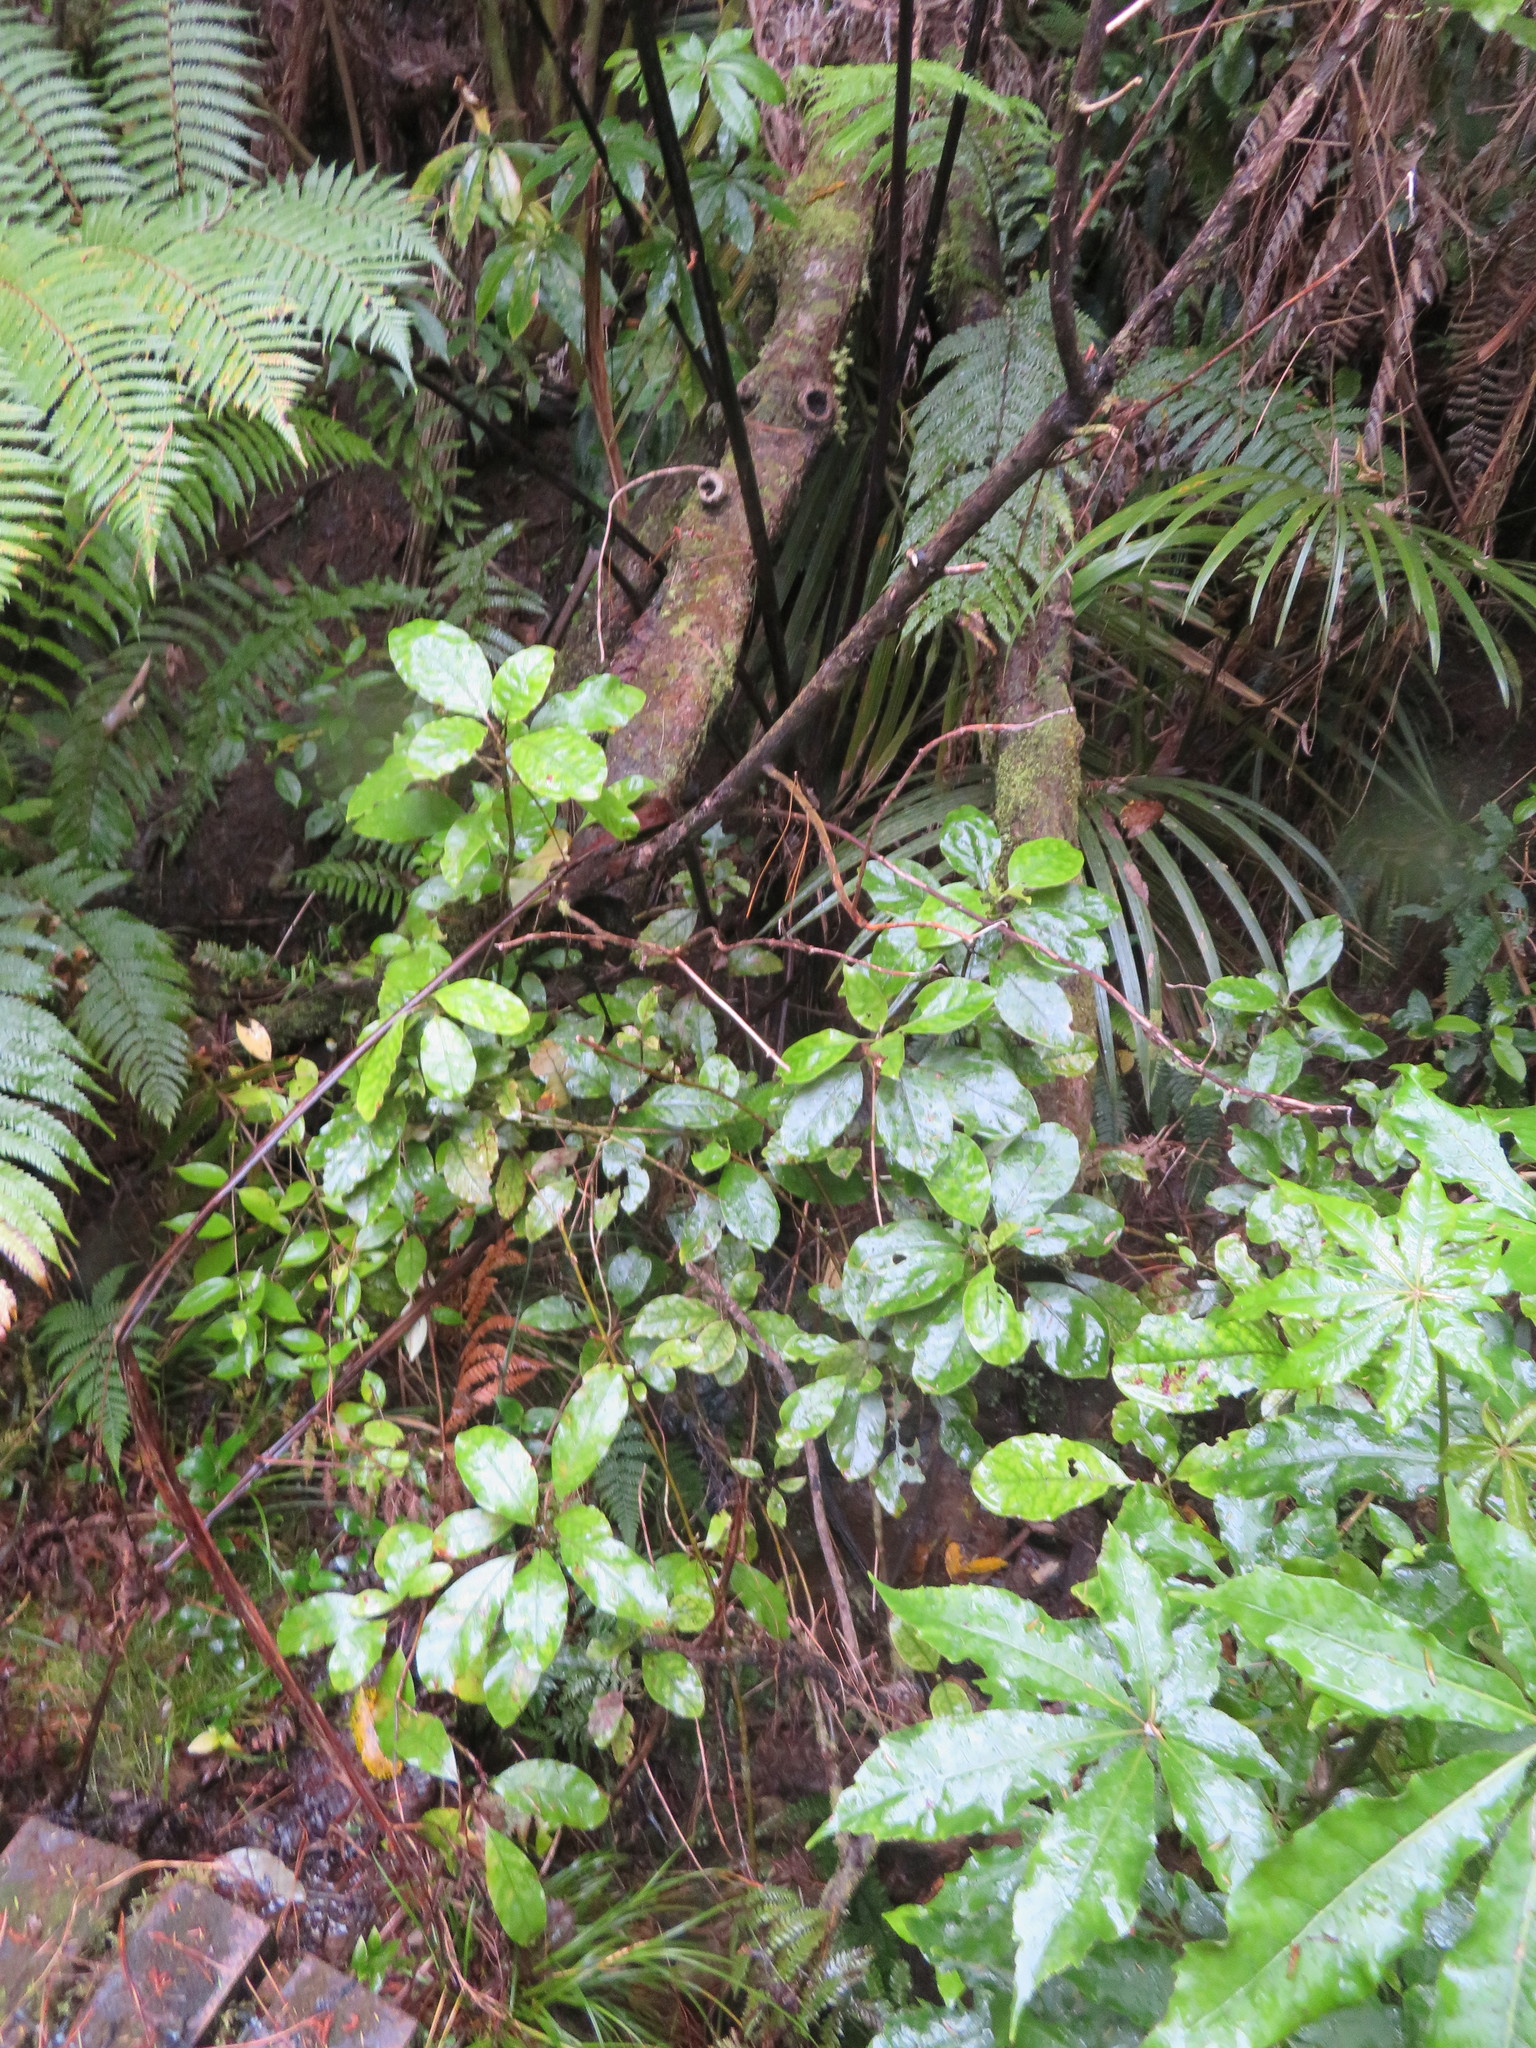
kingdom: Plantae
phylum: Tracheophyta
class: Magnoliopsida
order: Gentianales
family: Rubiaceae
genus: Coprosma
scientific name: Coprosma autumnalis
